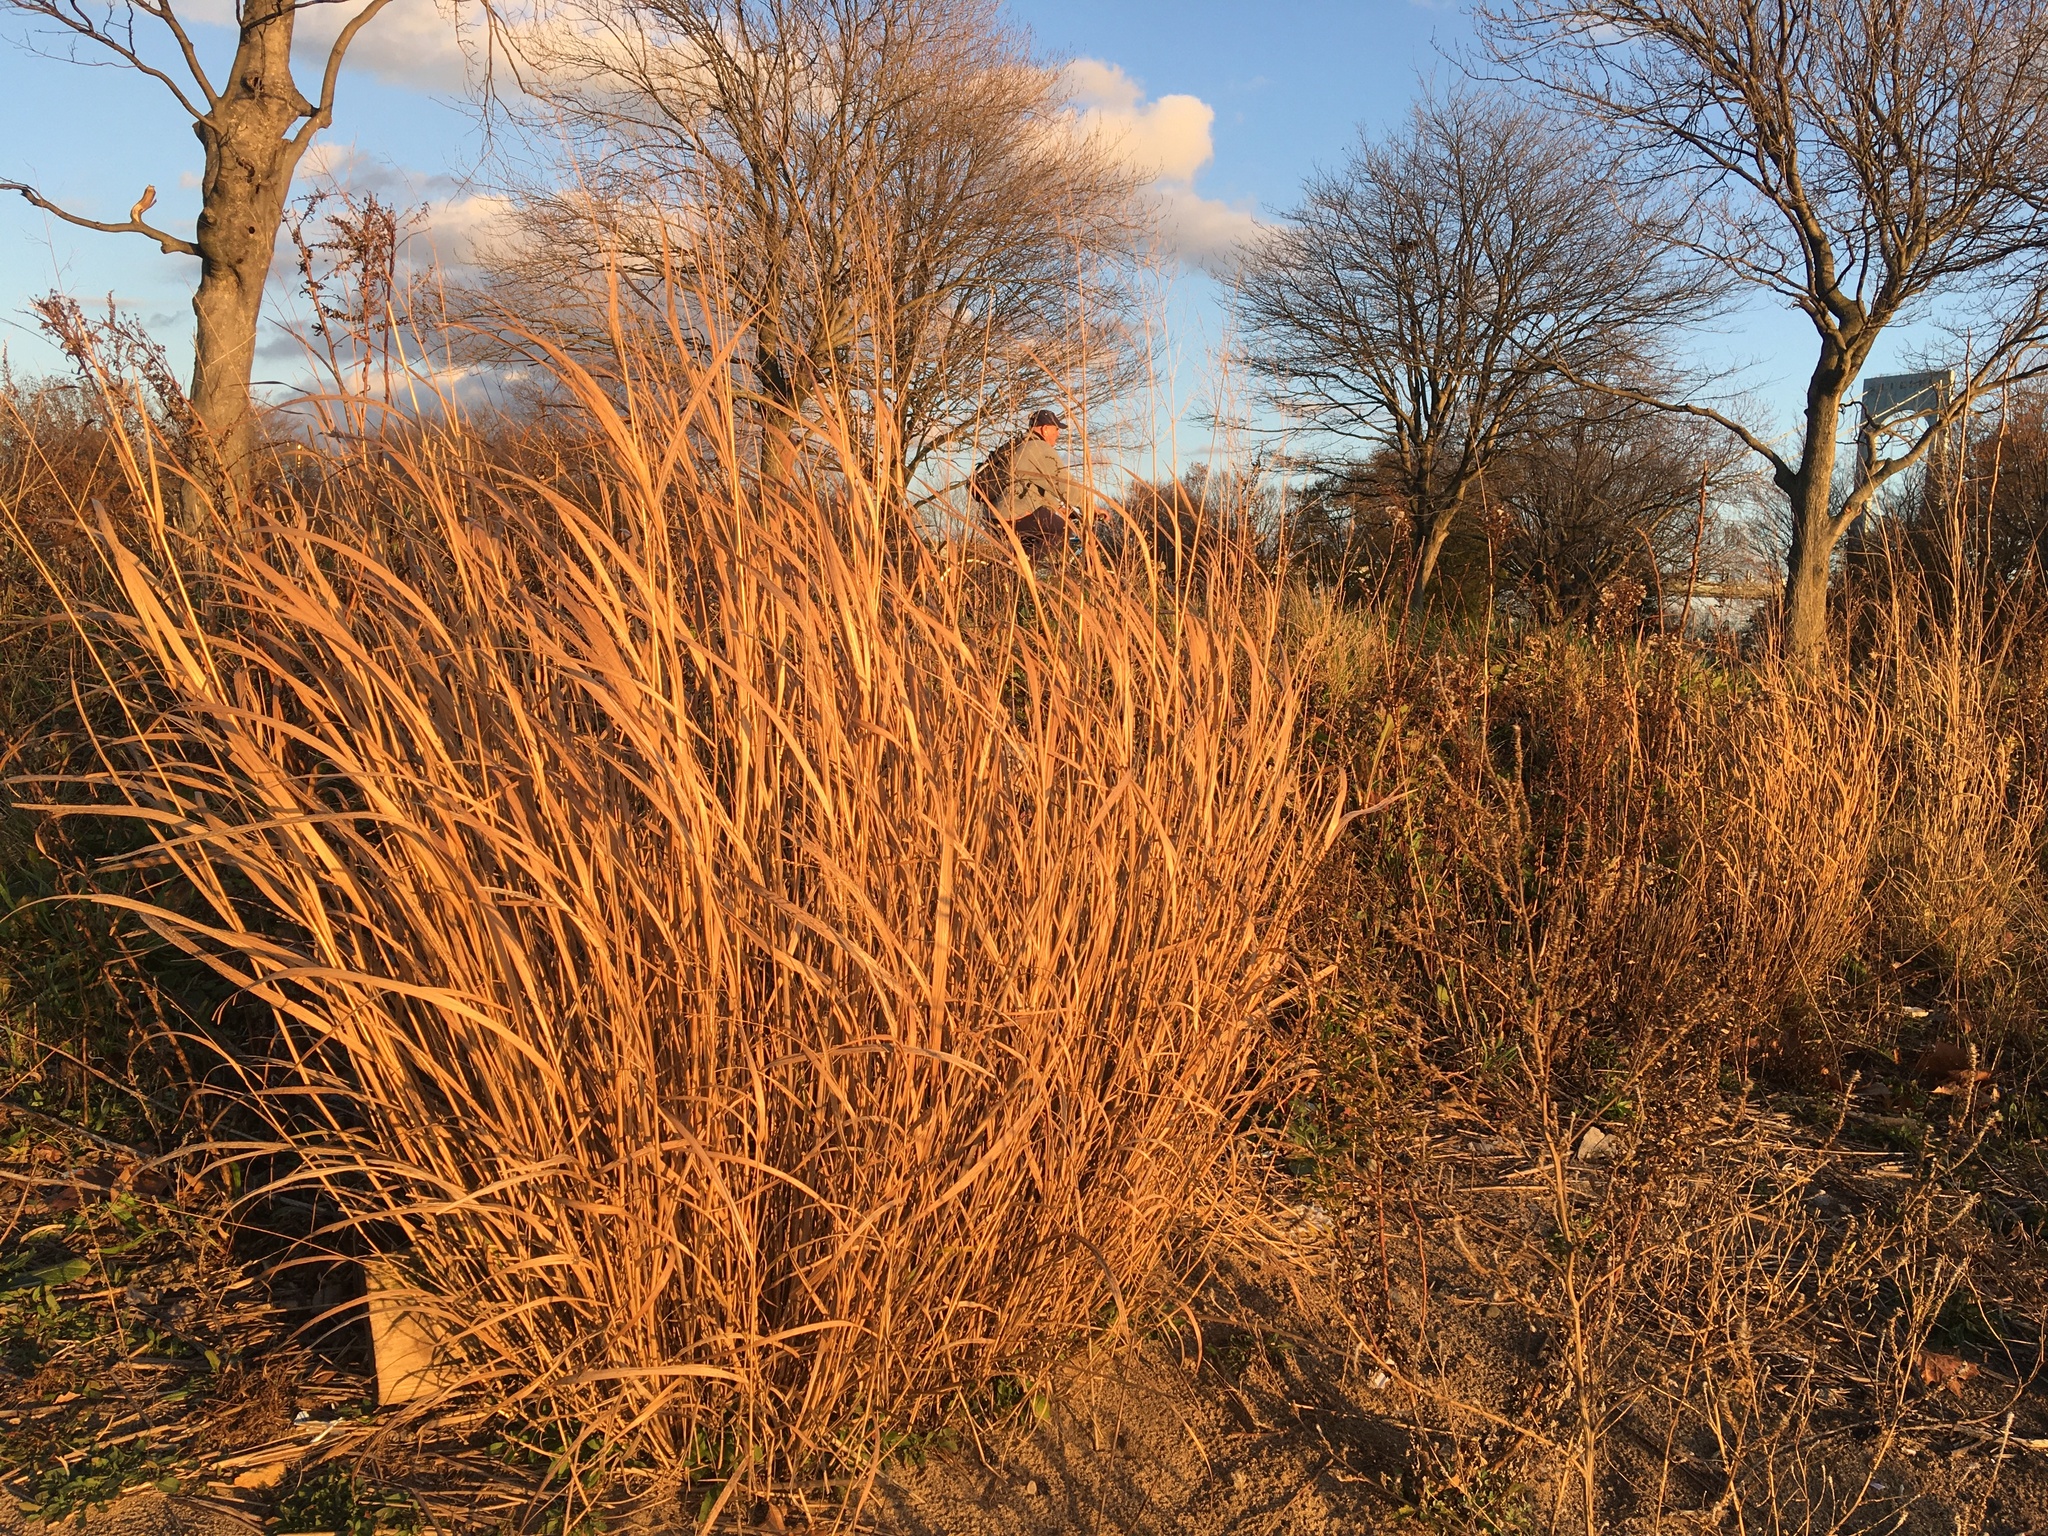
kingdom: Plantae
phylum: Tracheophyta
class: Liliopsida
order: Poales
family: Poaceae
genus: Panicum
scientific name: Panicum virgatum
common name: Switchgrass
